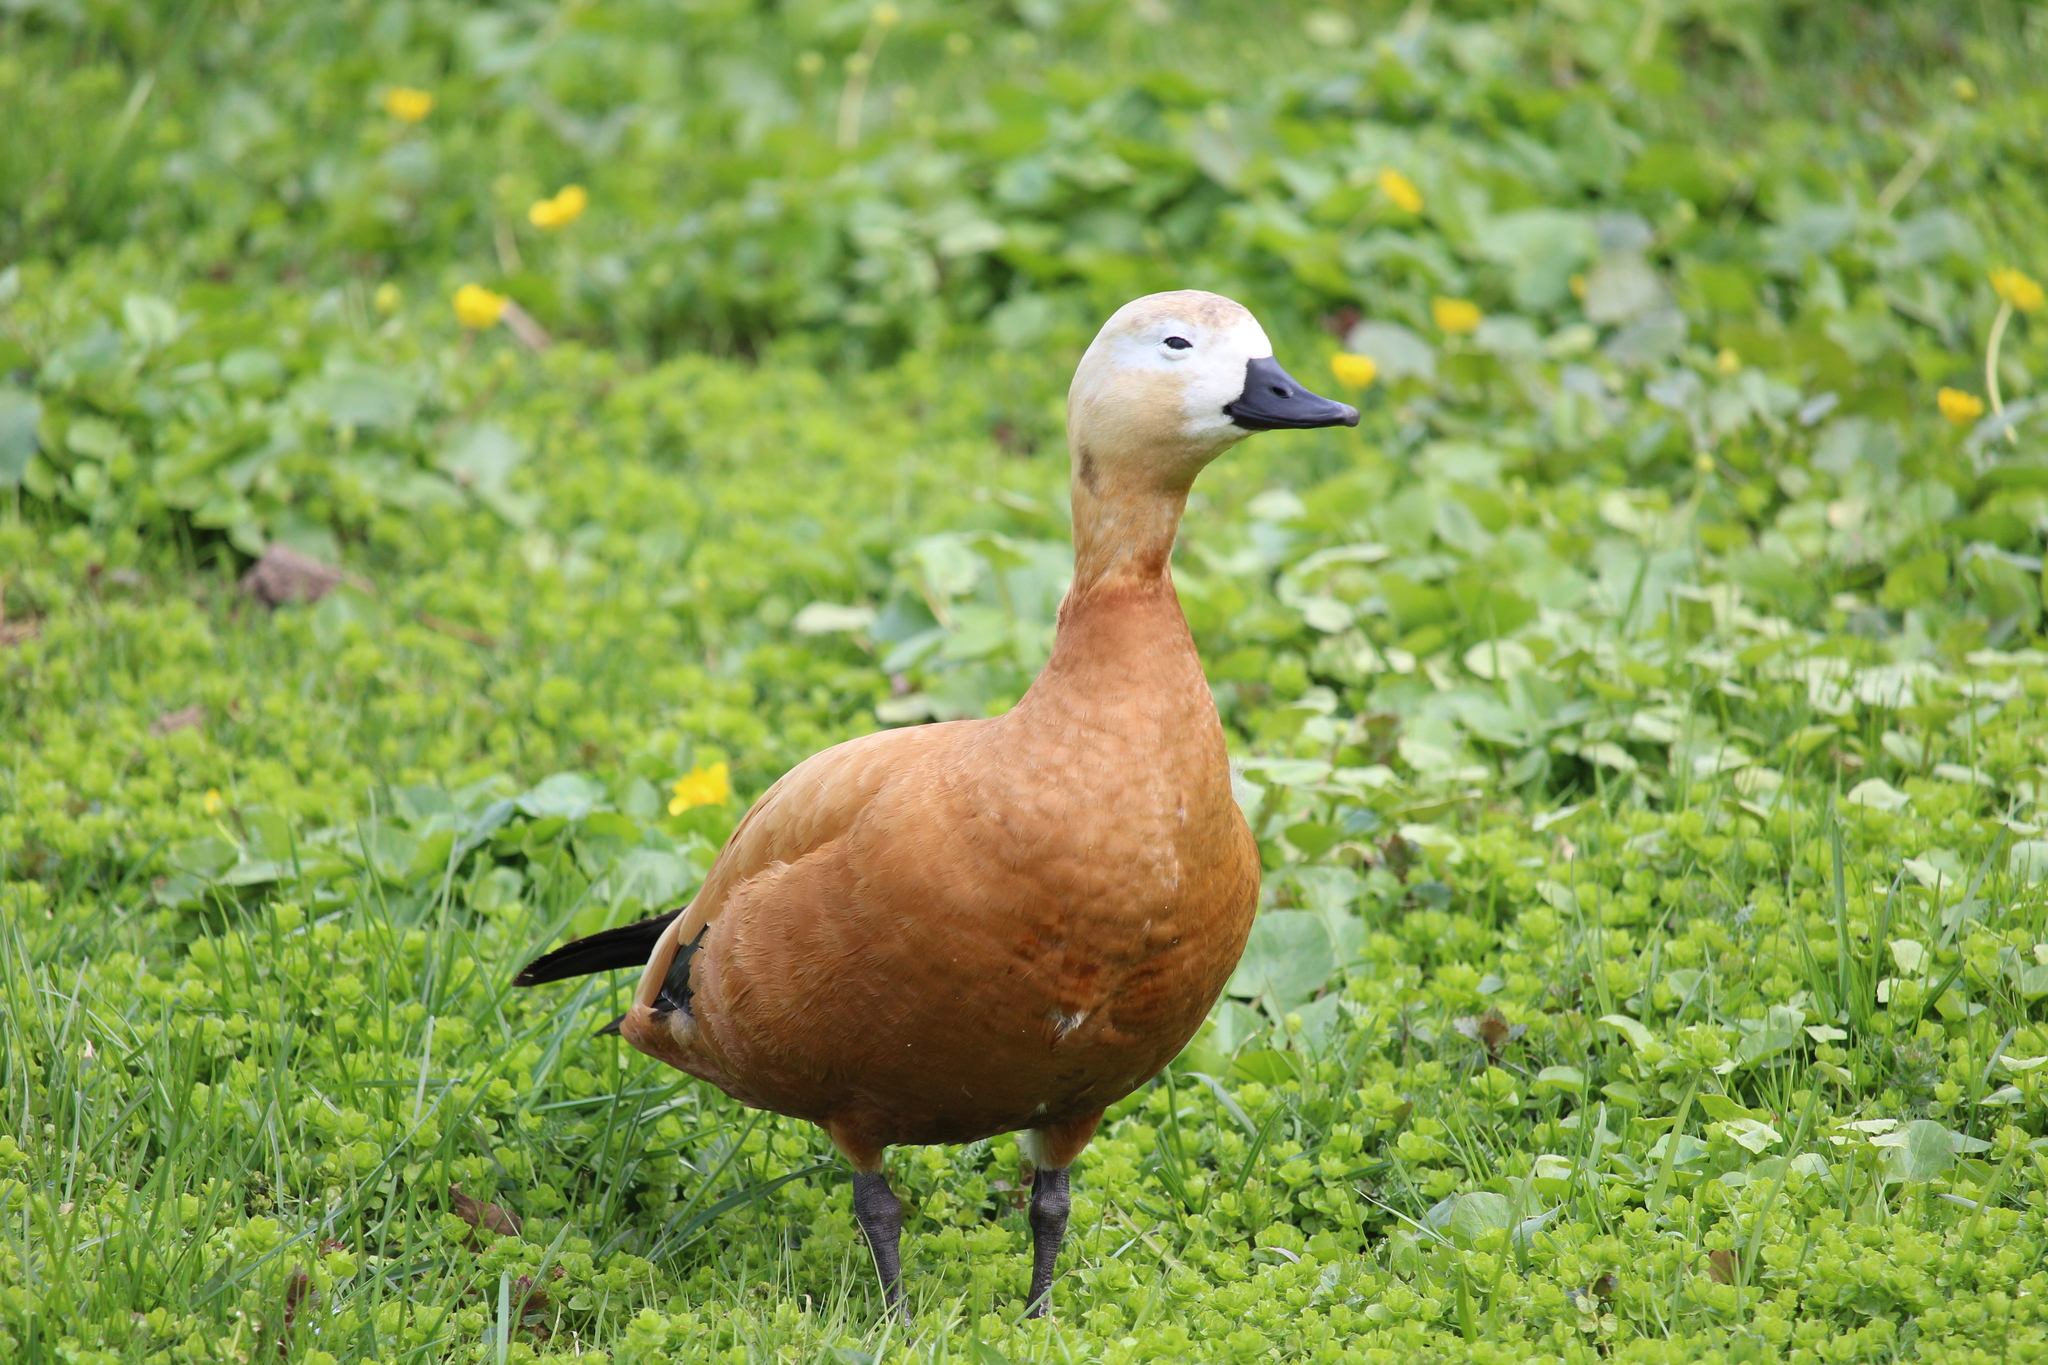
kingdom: Animalia
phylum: Chordata
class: Aves
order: Anseriformes
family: Anatidae
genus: Tadorna
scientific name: Tadorna ferruginea
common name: Ruddy shelduck
